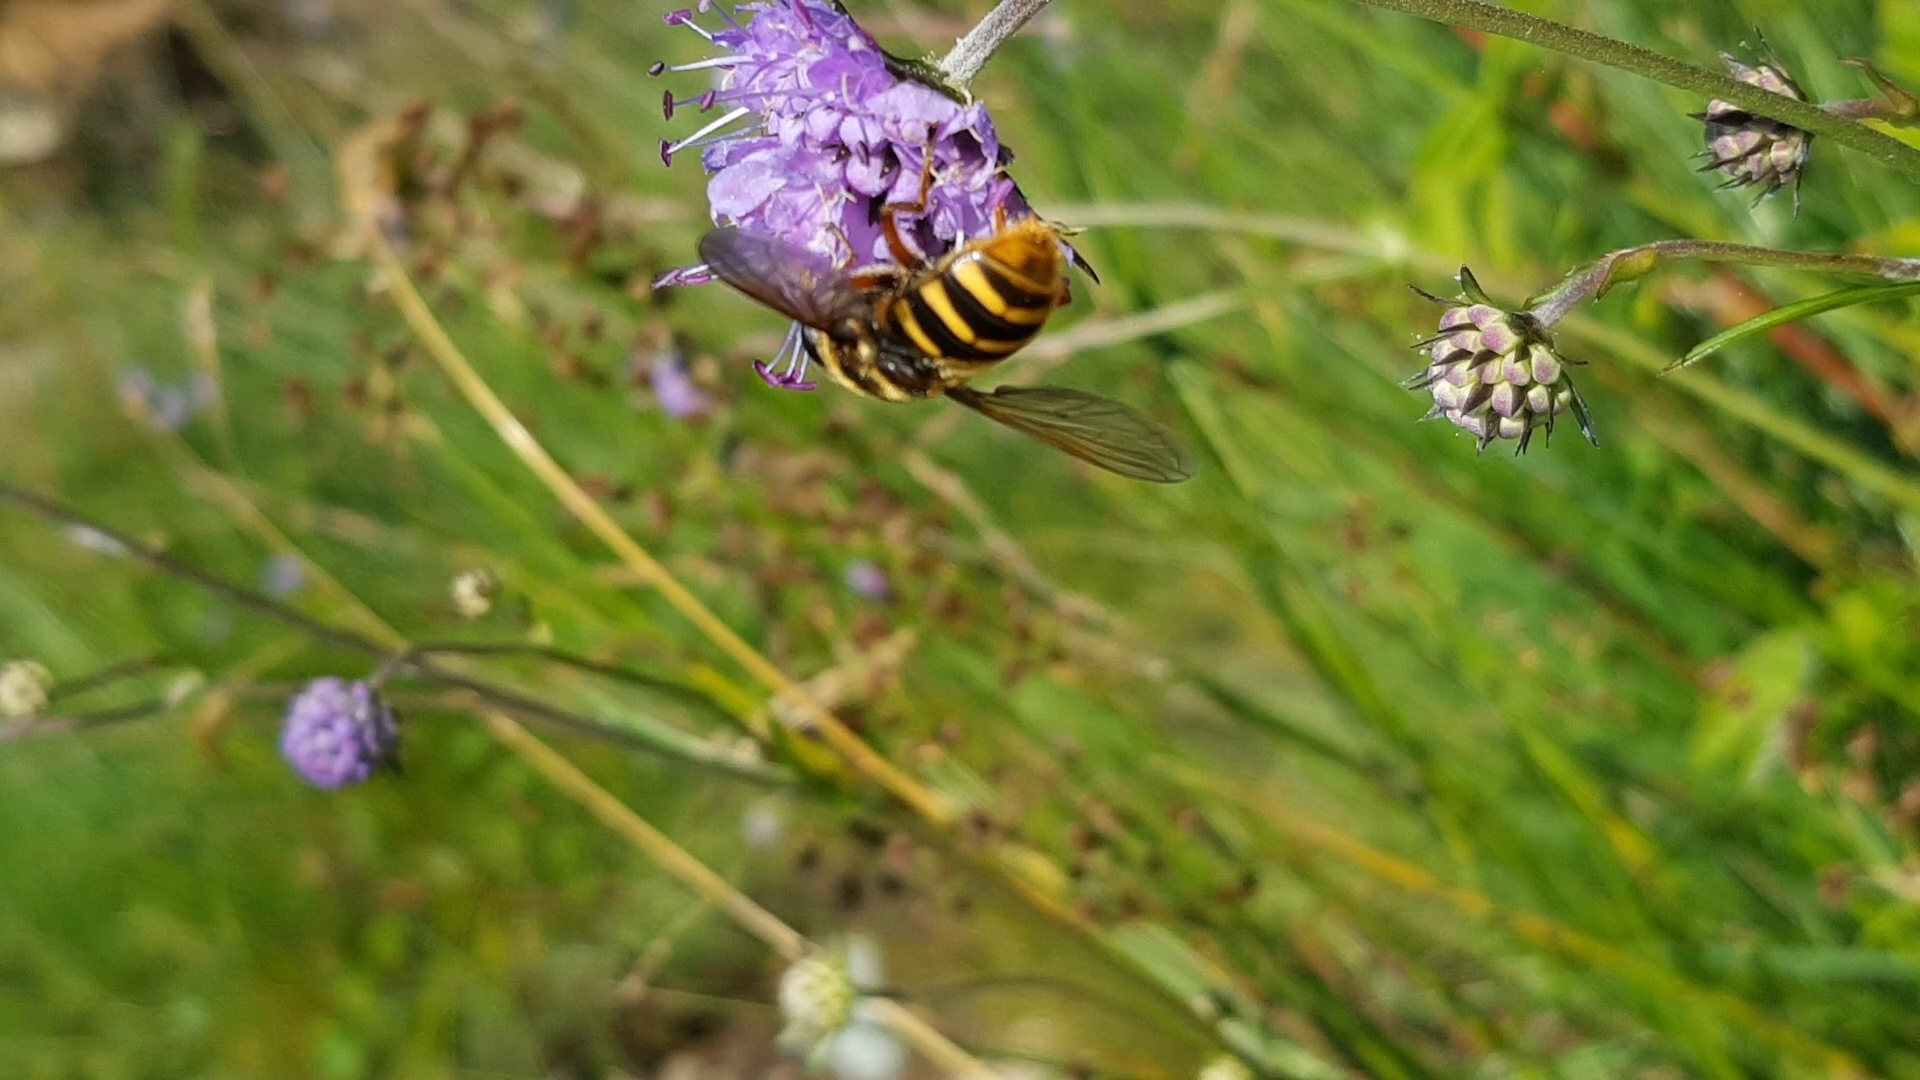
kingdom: Animalia
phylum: Arthropoda
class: Insecta
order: Diptera
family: Syrphidae
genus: Sericomyia
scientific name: Sericomyia silentis
